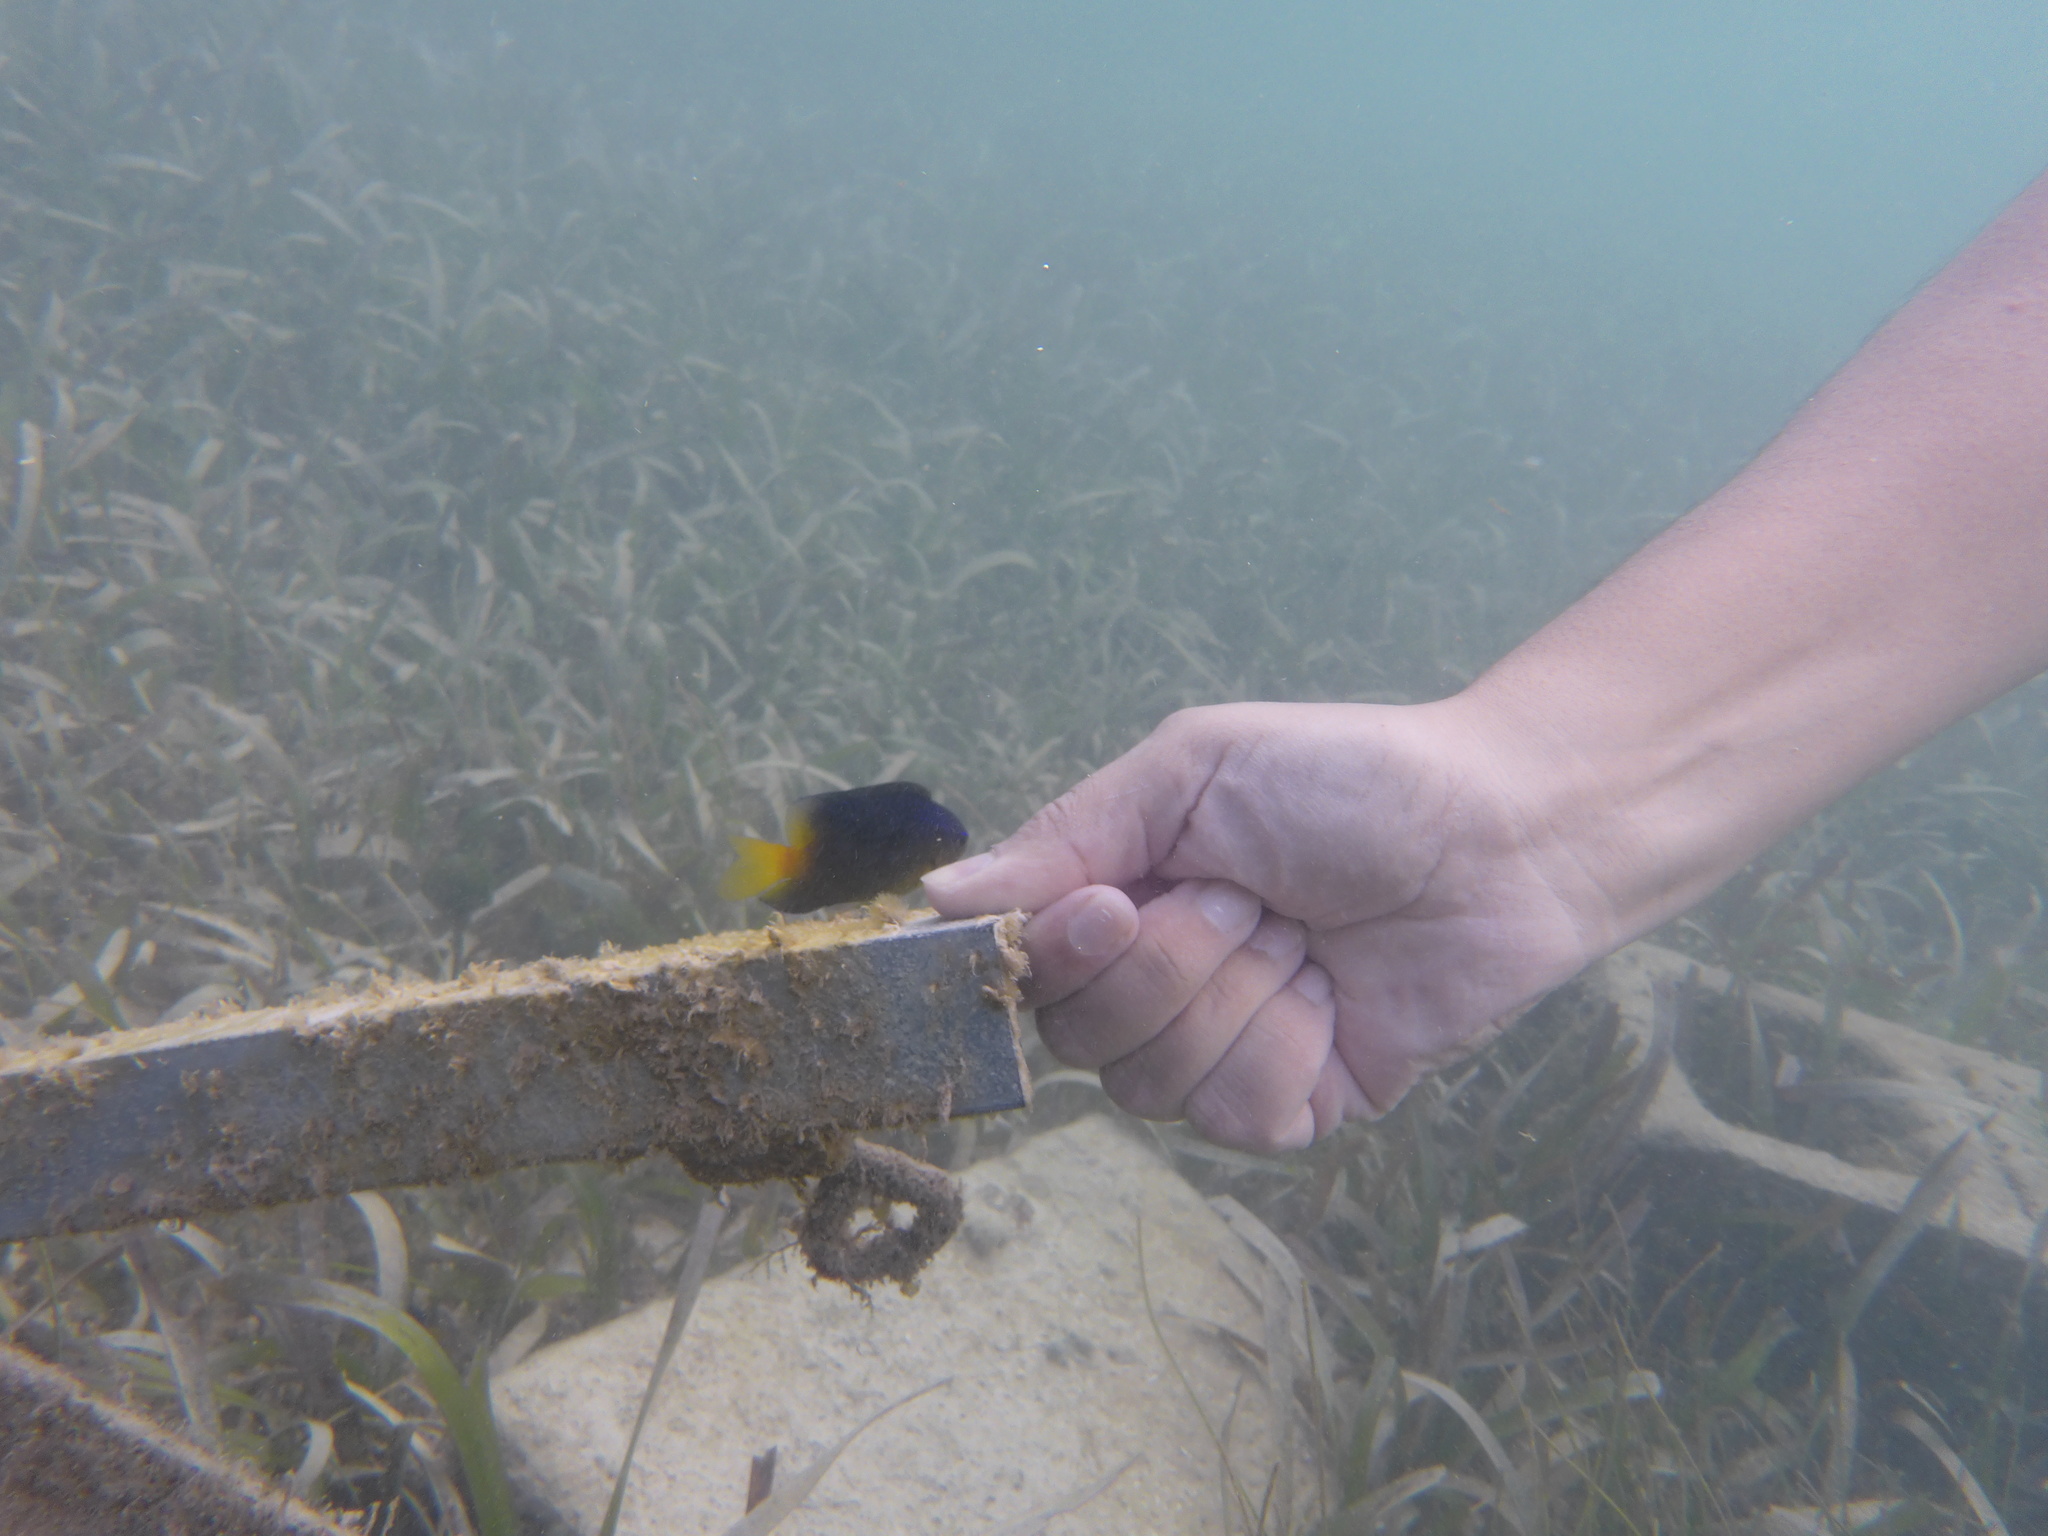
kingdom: Animalia
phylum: Chordata
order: Perciformes
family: Pomacentridae
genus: Stegastes
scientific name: Stegastes partitus
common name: Bicolor damselfish
